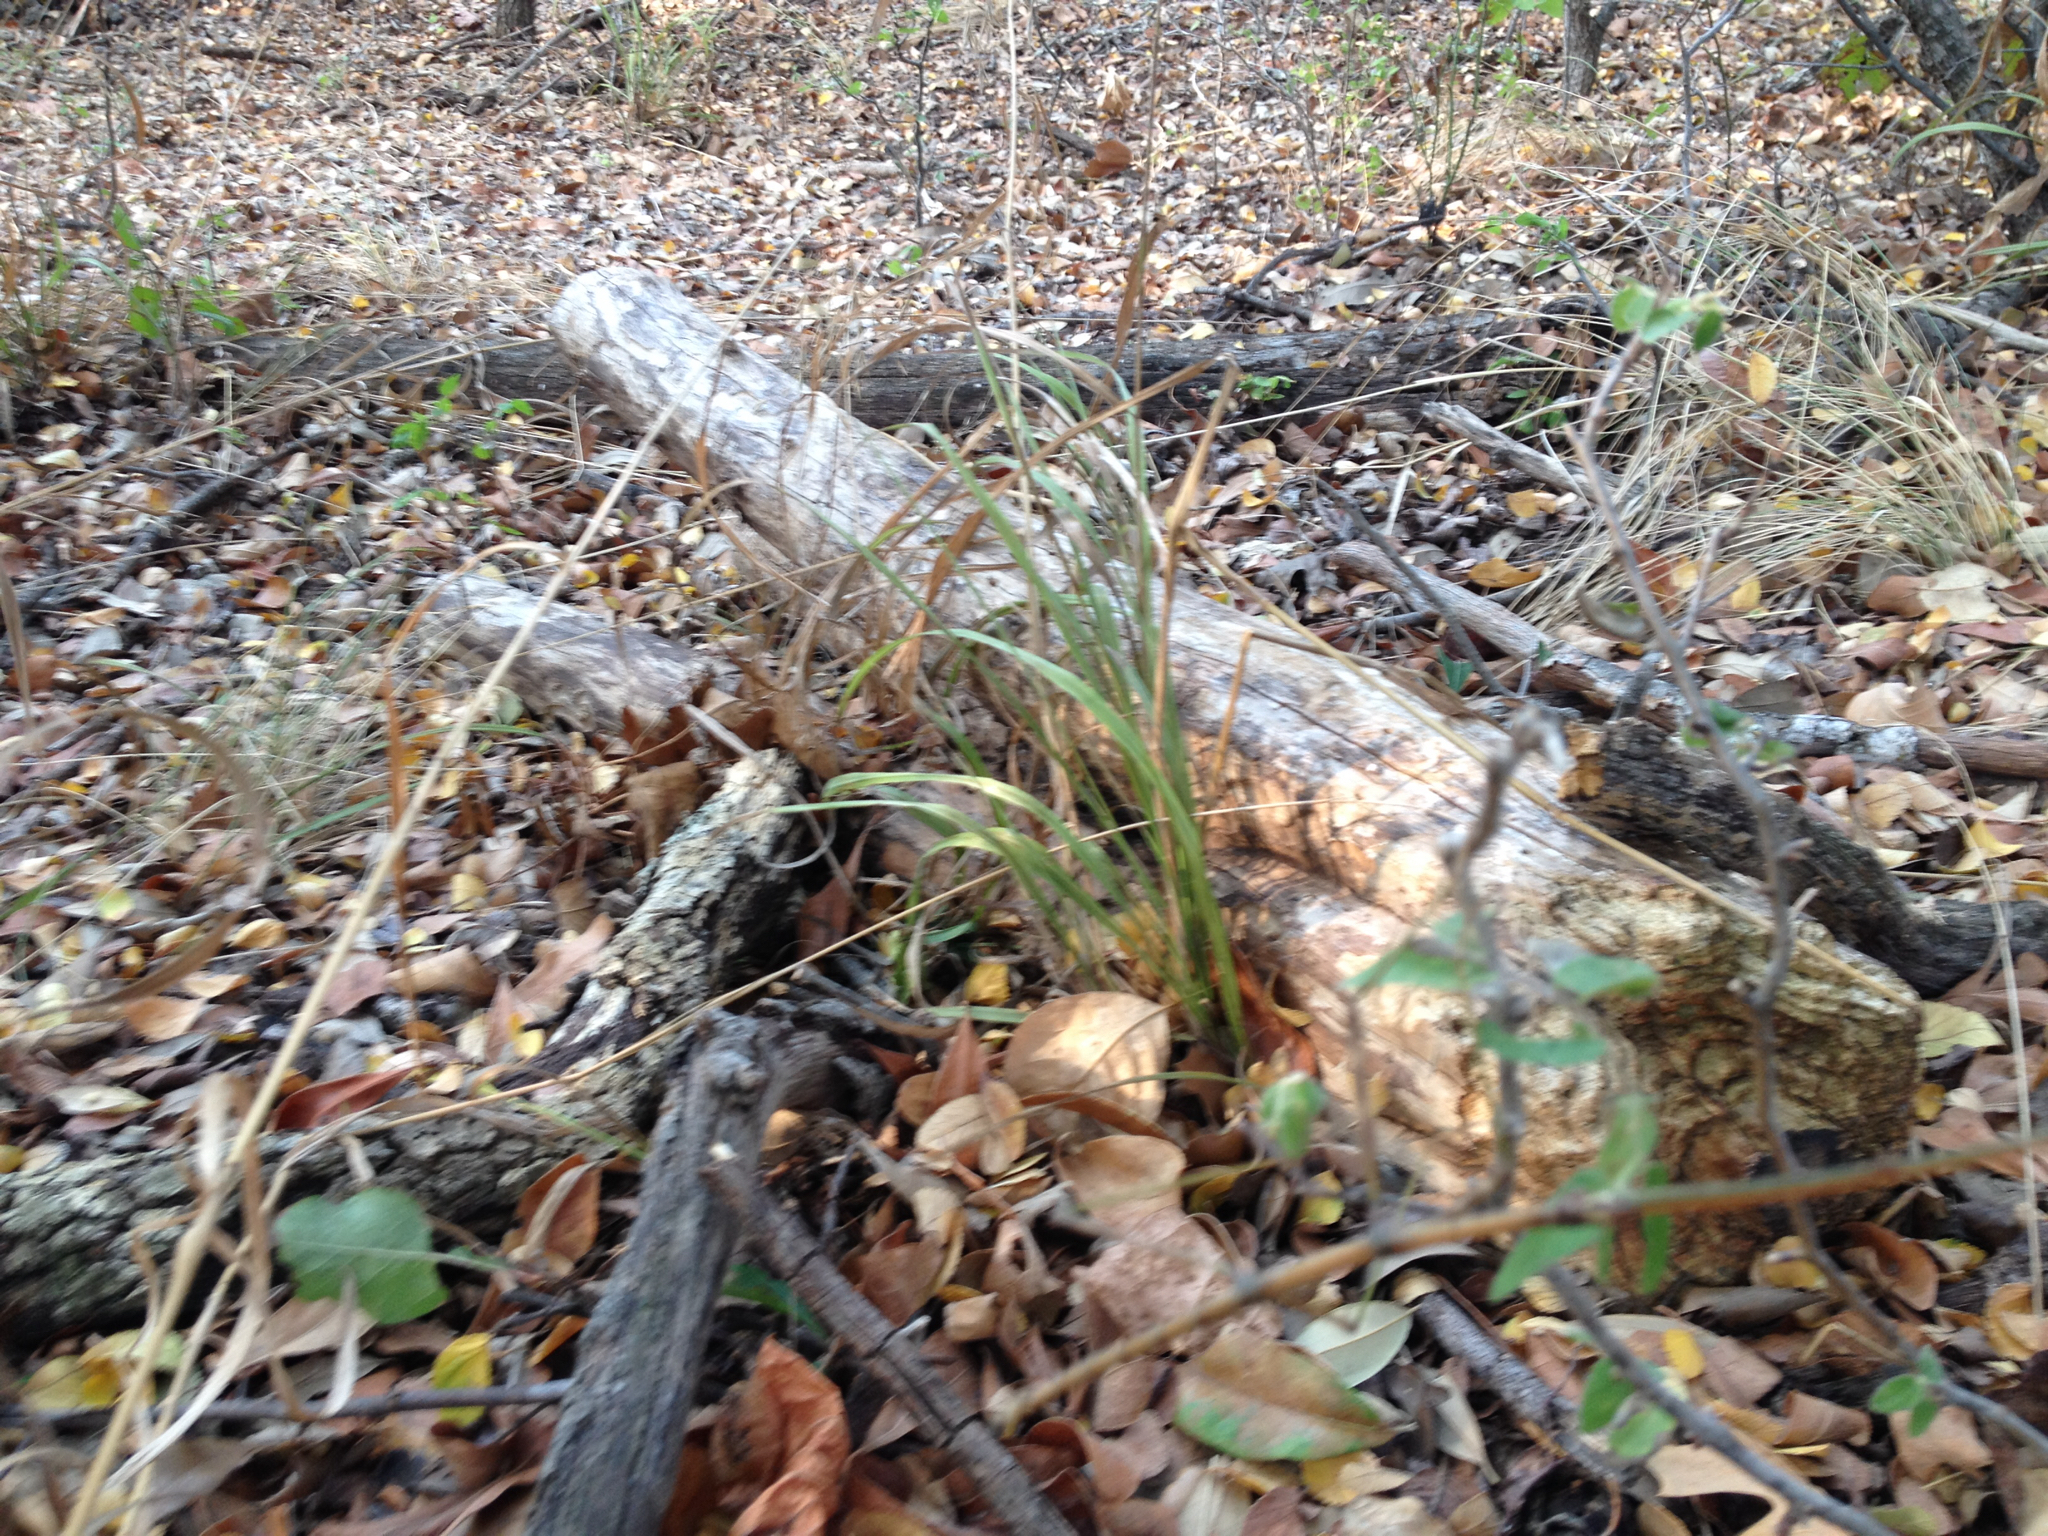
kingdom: Animalia
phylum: Arthropoda
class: Insecta
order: Phasmida
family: Diapheromeridae
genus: Diapheromera
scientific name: Diapheromera femorata
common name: Common american walkingstick
